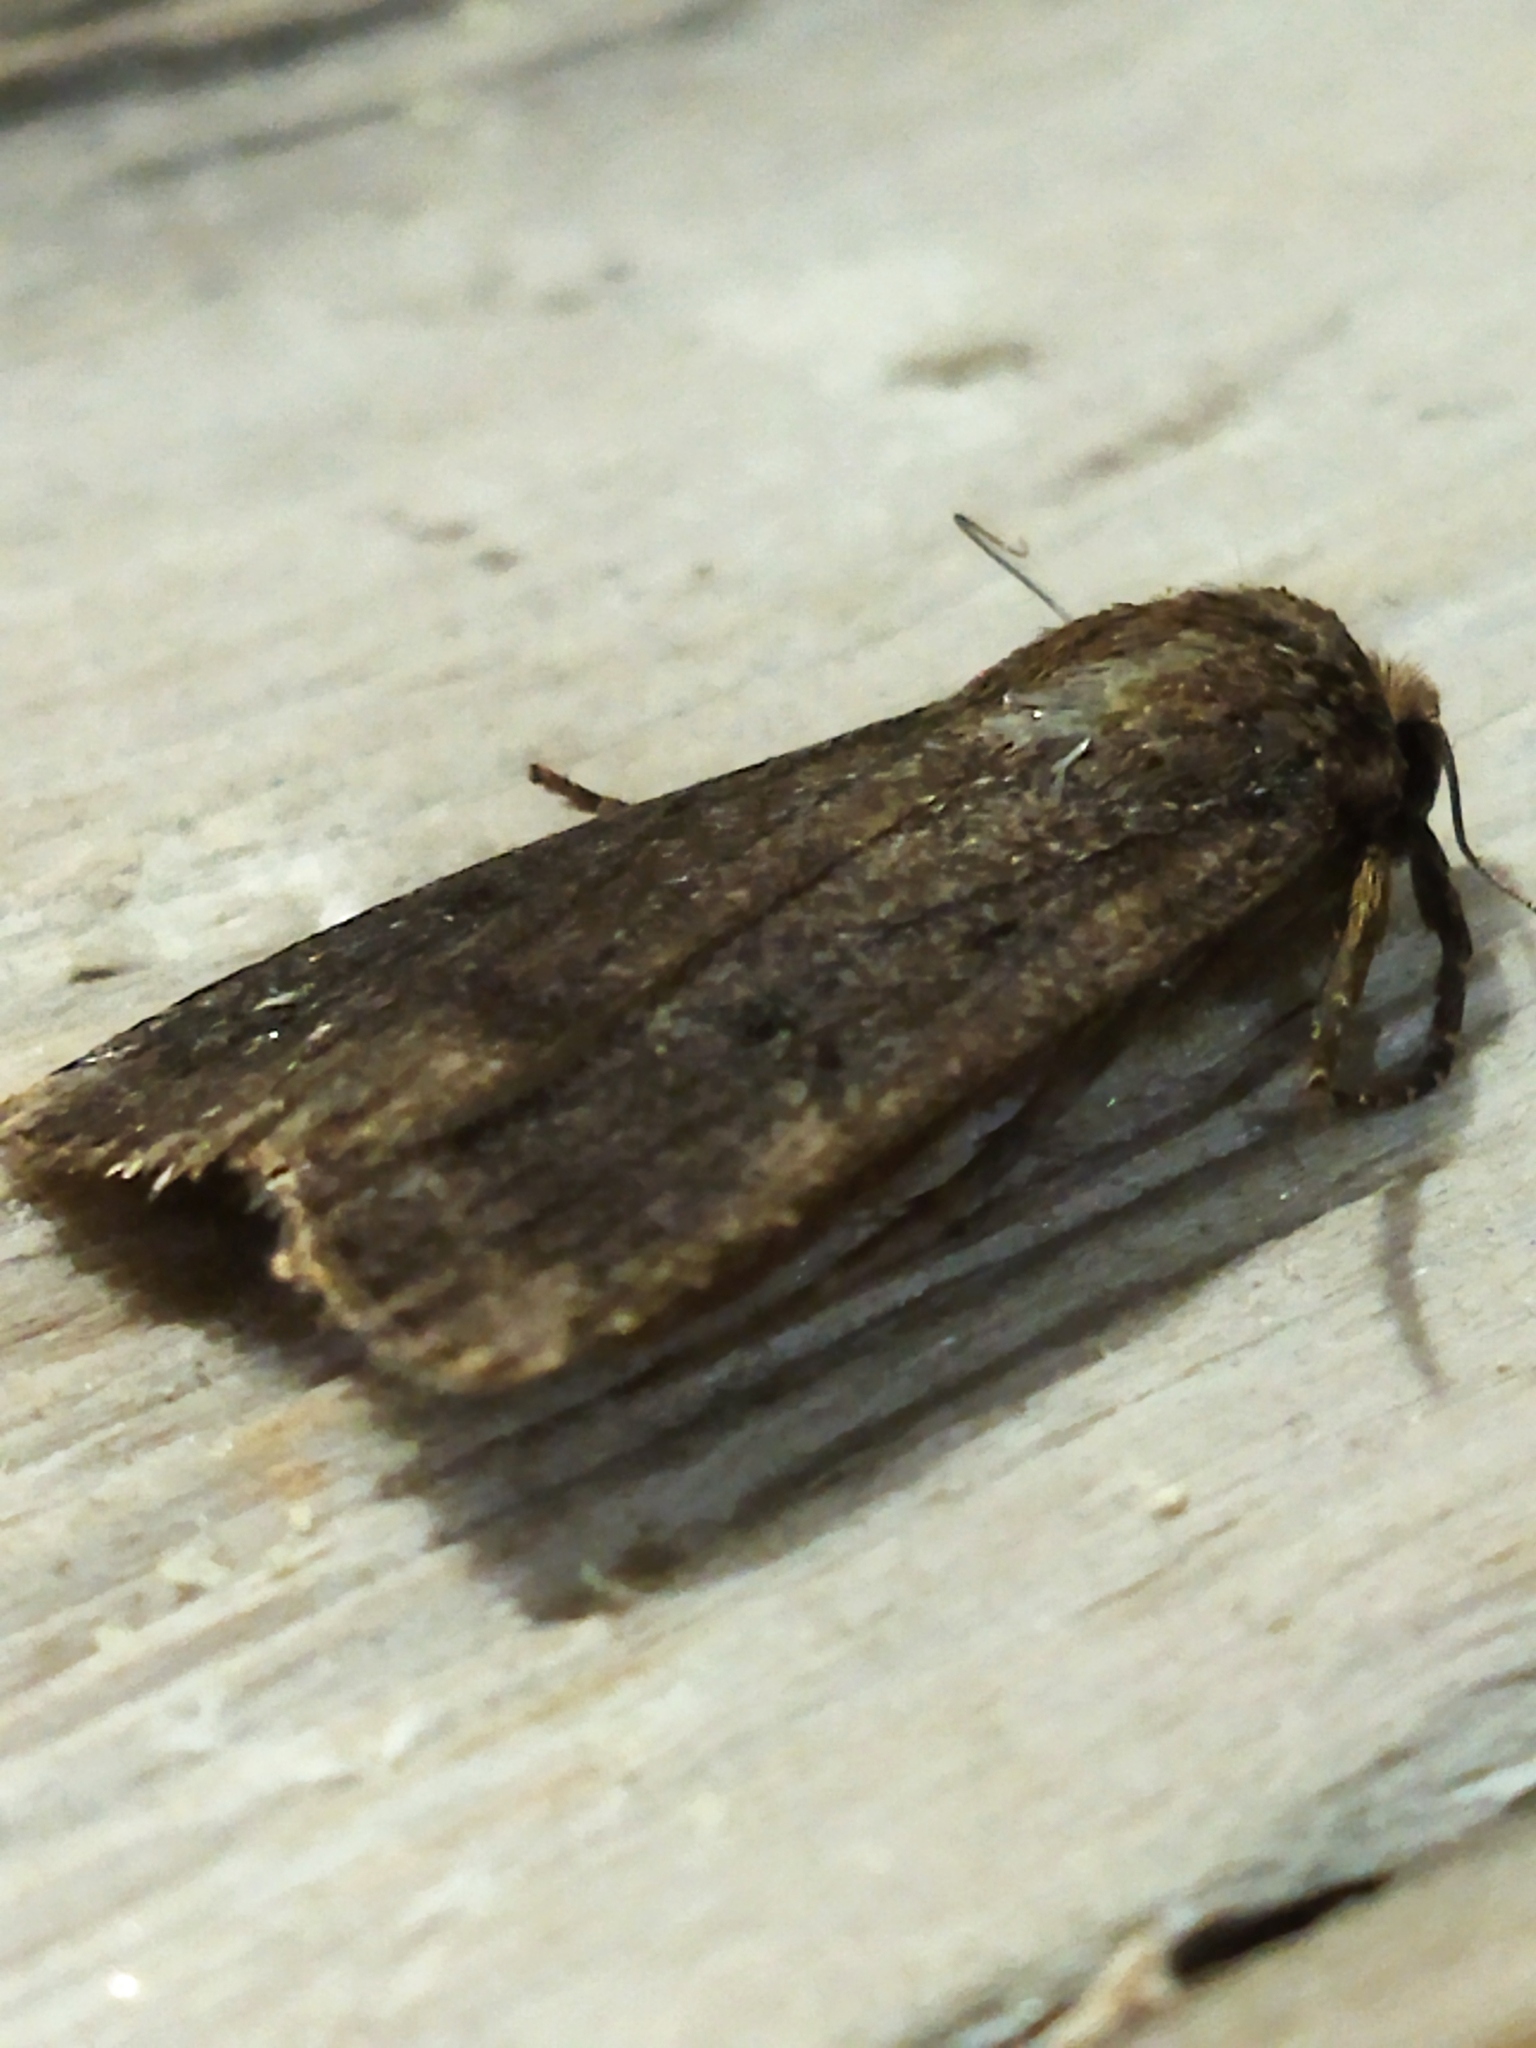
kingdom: Animalia
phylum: Arthropoda
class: Insecta
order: Lepidoptera
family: Noctuidae
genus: Amphipyra
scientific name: Amphipyra tragopoginis
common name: Mouse moth
